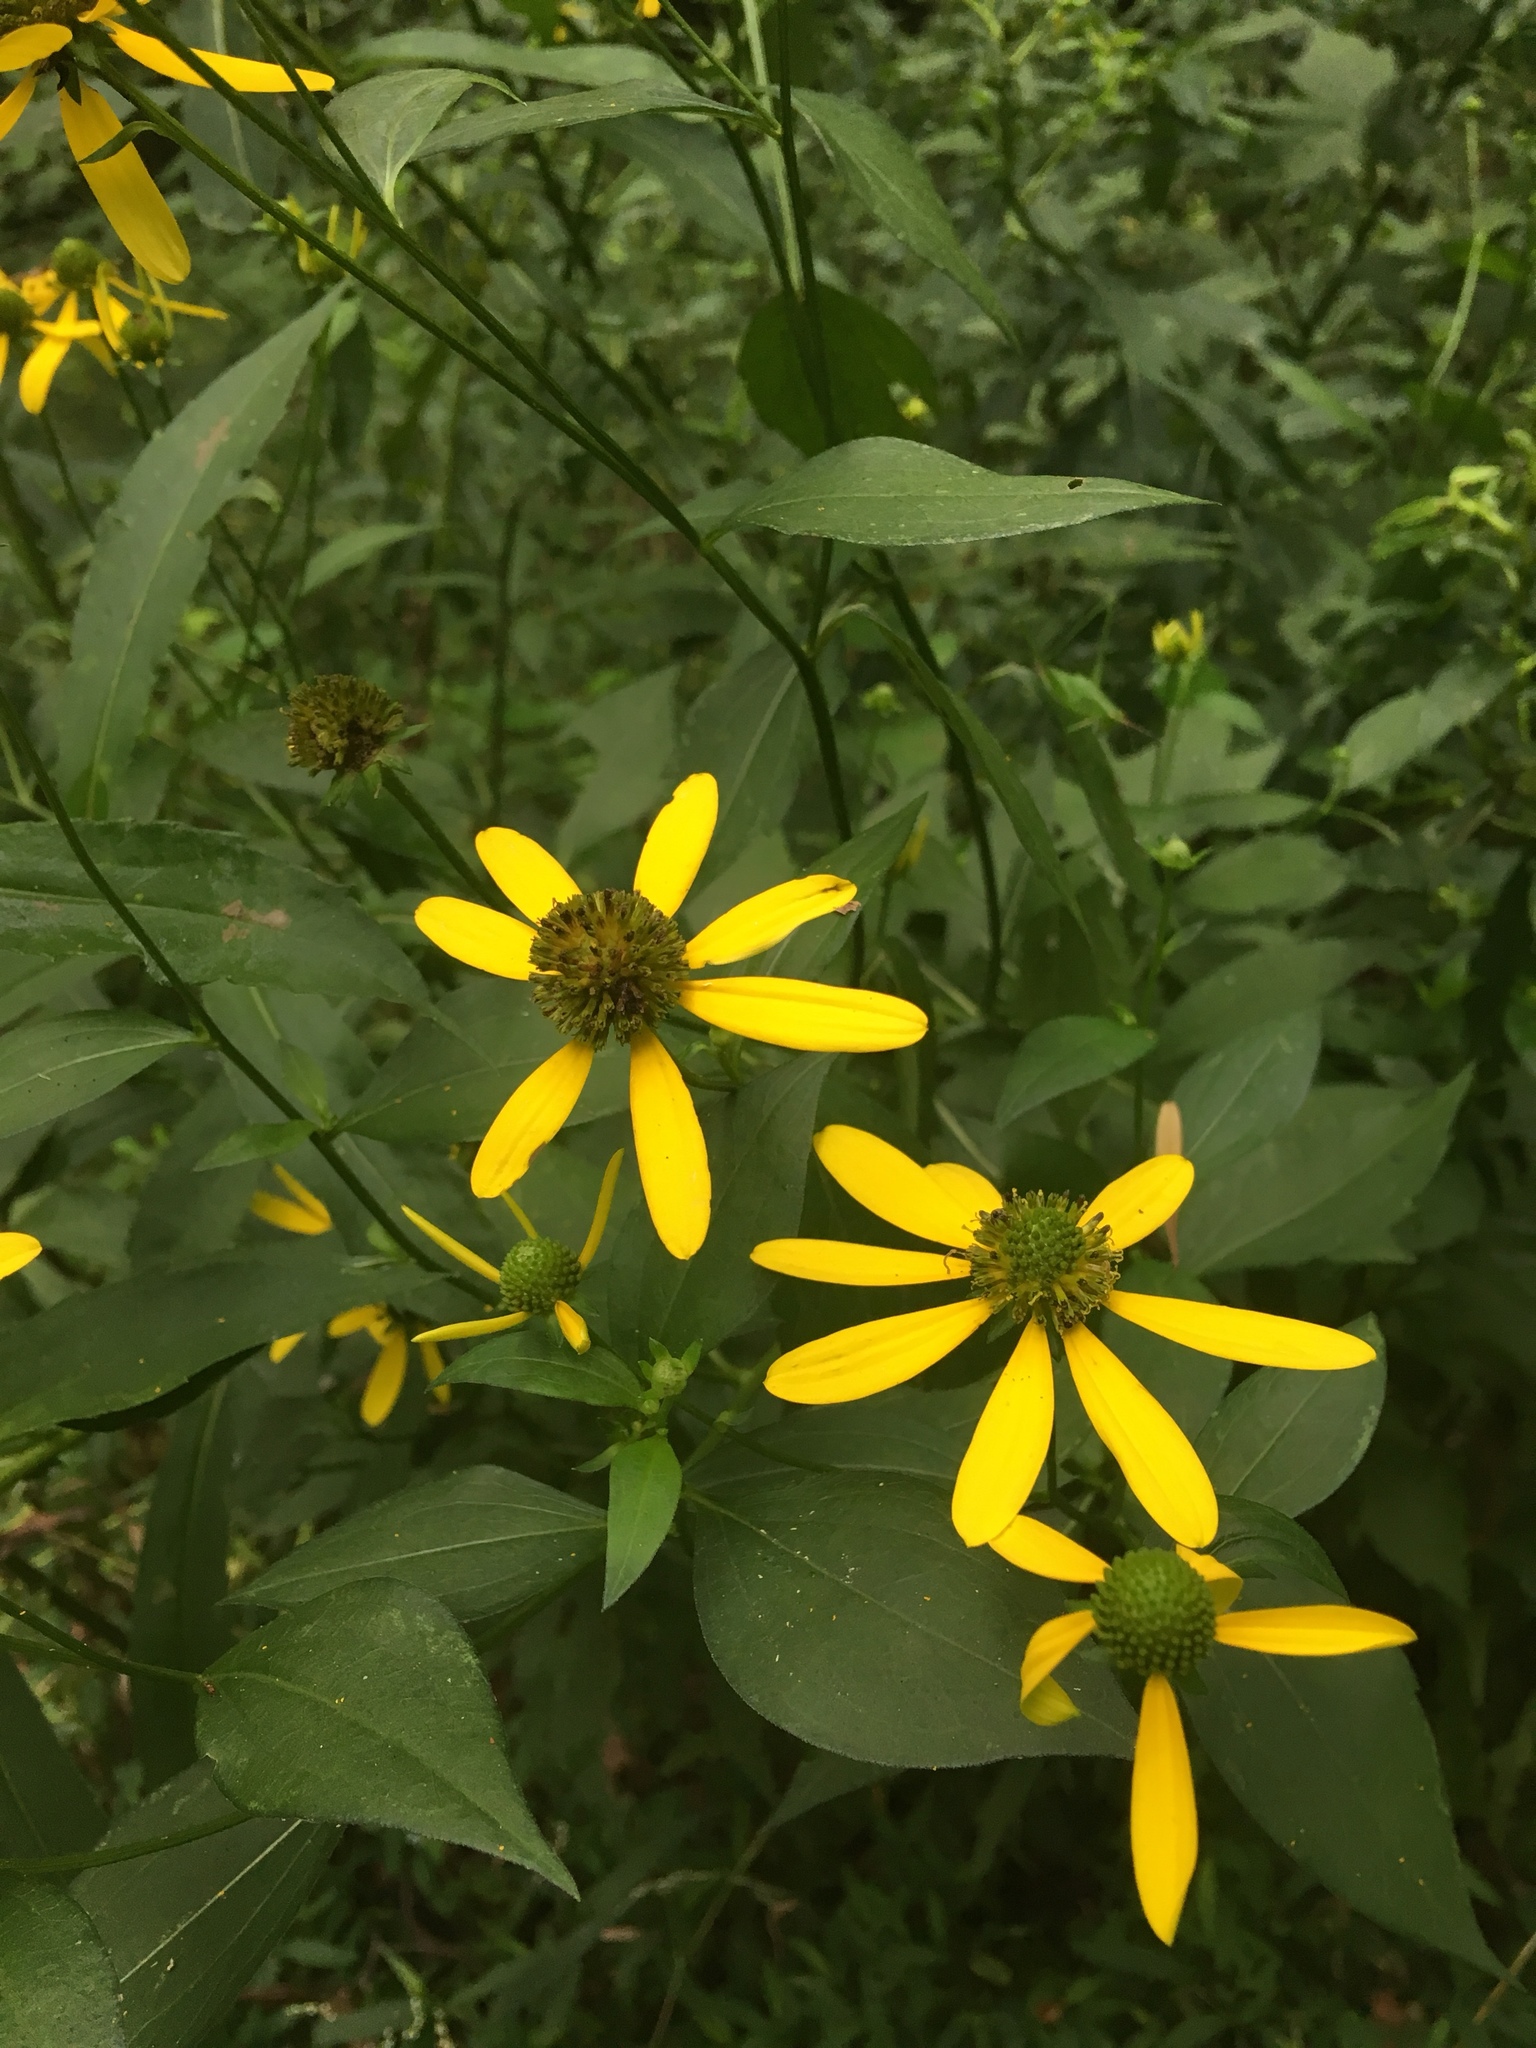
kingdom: Plantae
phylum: Tracheophyta
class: Magnoliopsida
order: Asterales
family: Asteraceae
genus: Rudbeckia
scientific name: Rudbeckia laciniata
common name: Coneflower
